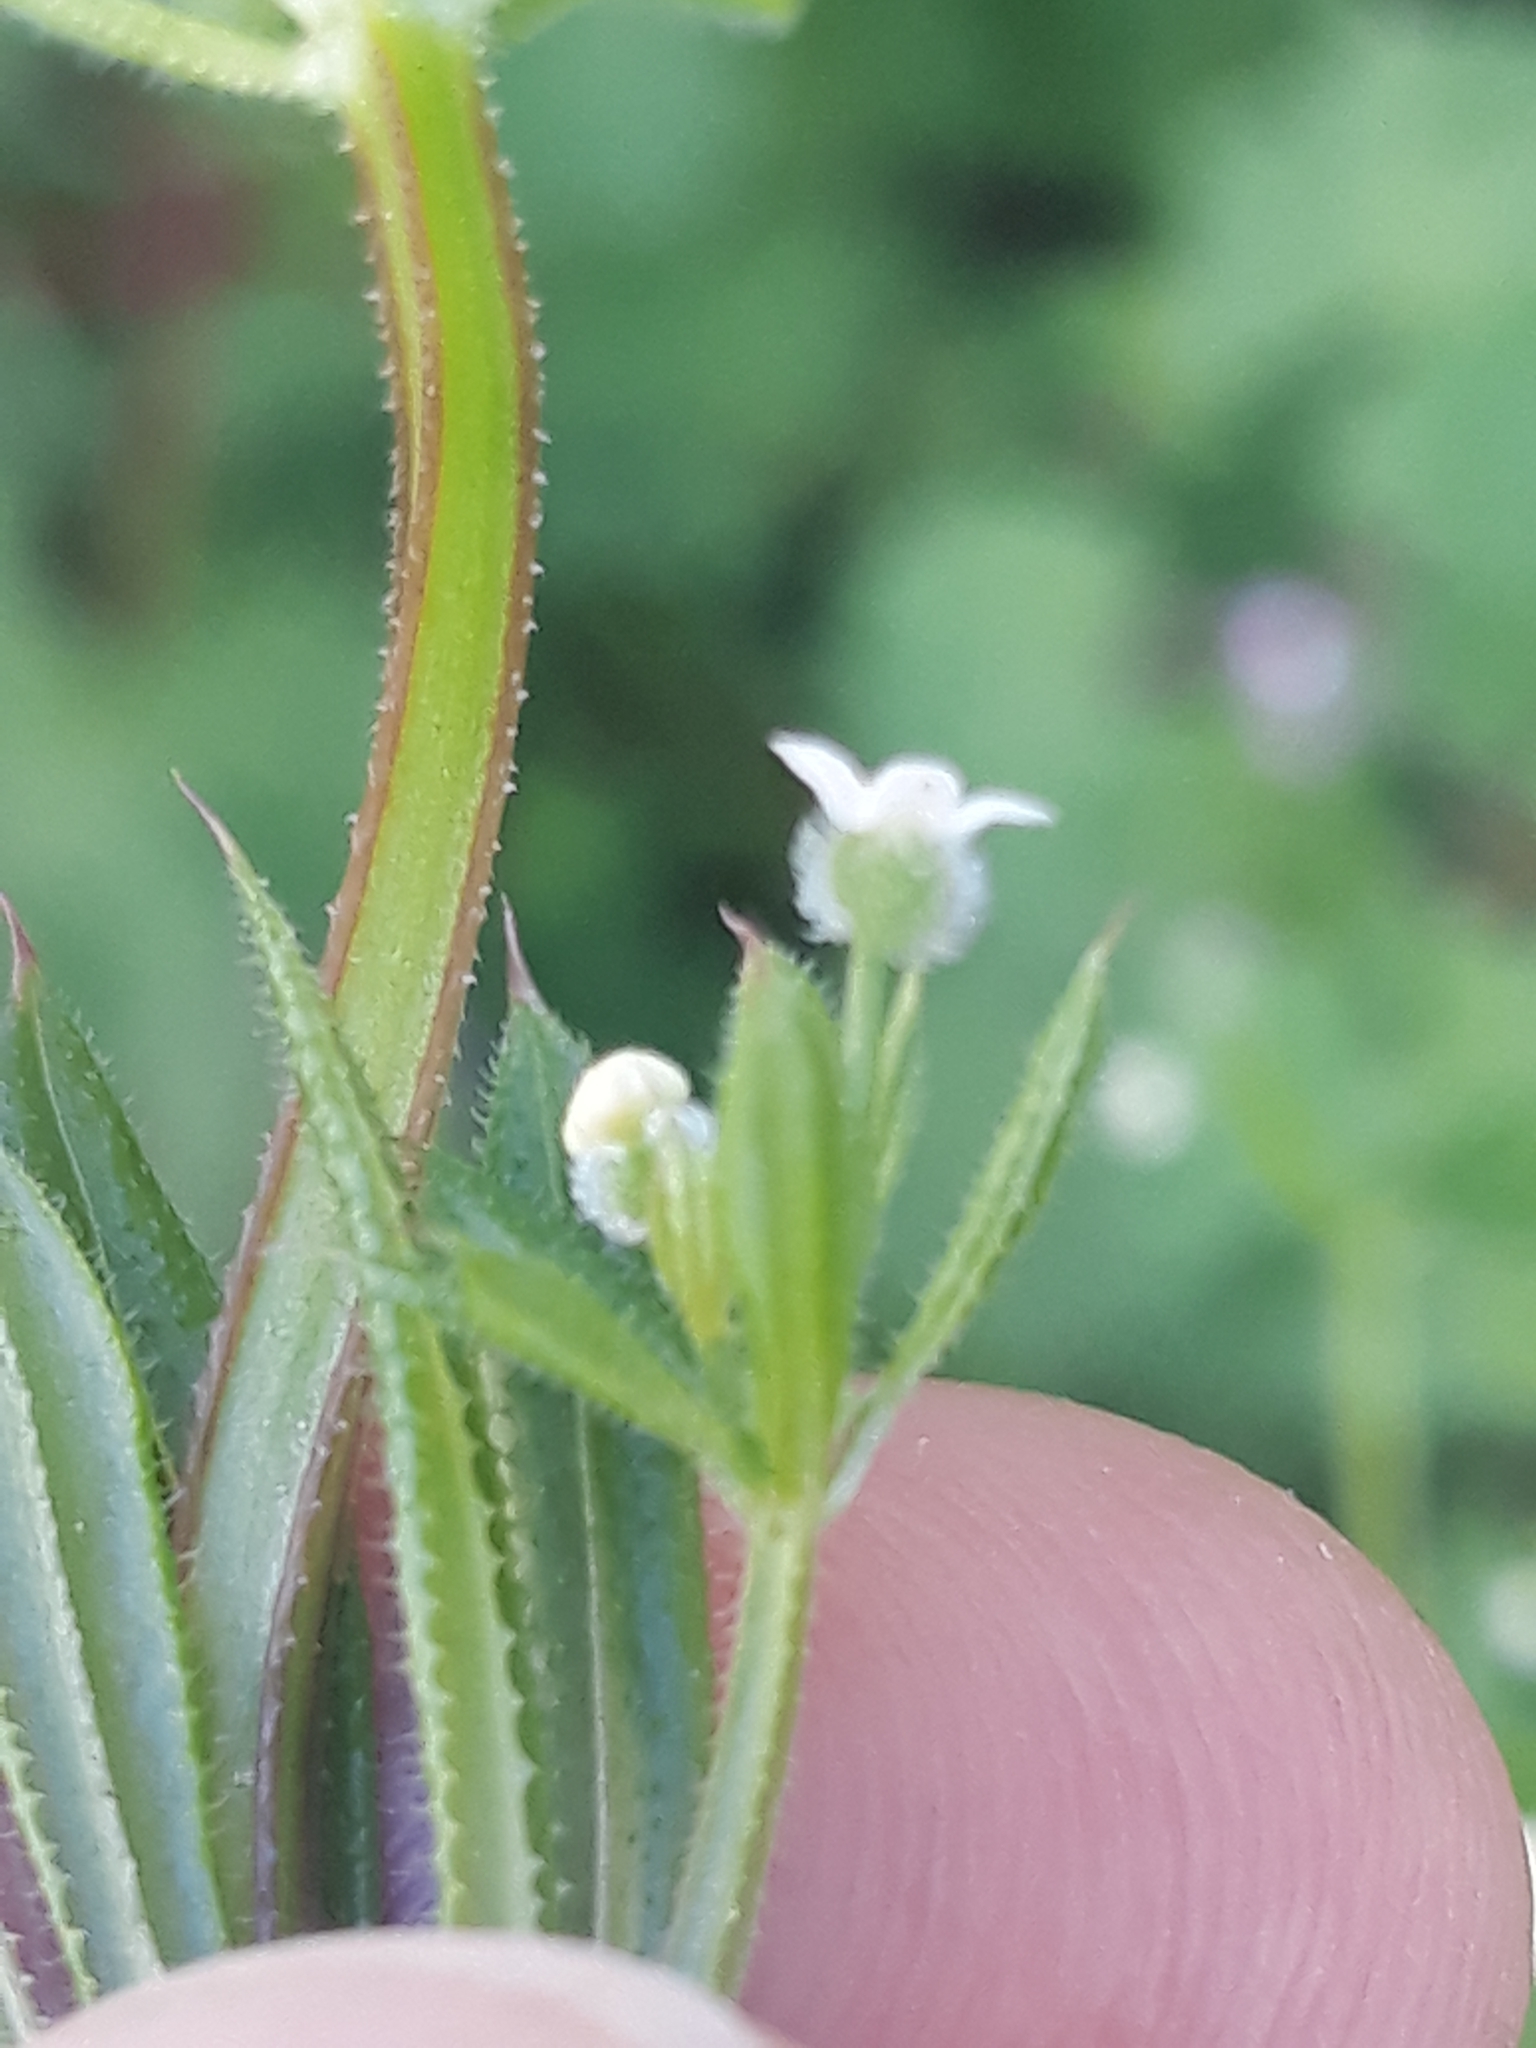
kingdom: Plantae
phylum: Tracheophyta
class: Magnoliopsida
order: Gentianales
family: Rubiaceae
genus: Galium
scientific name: Galium aparine
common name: Cleavers
